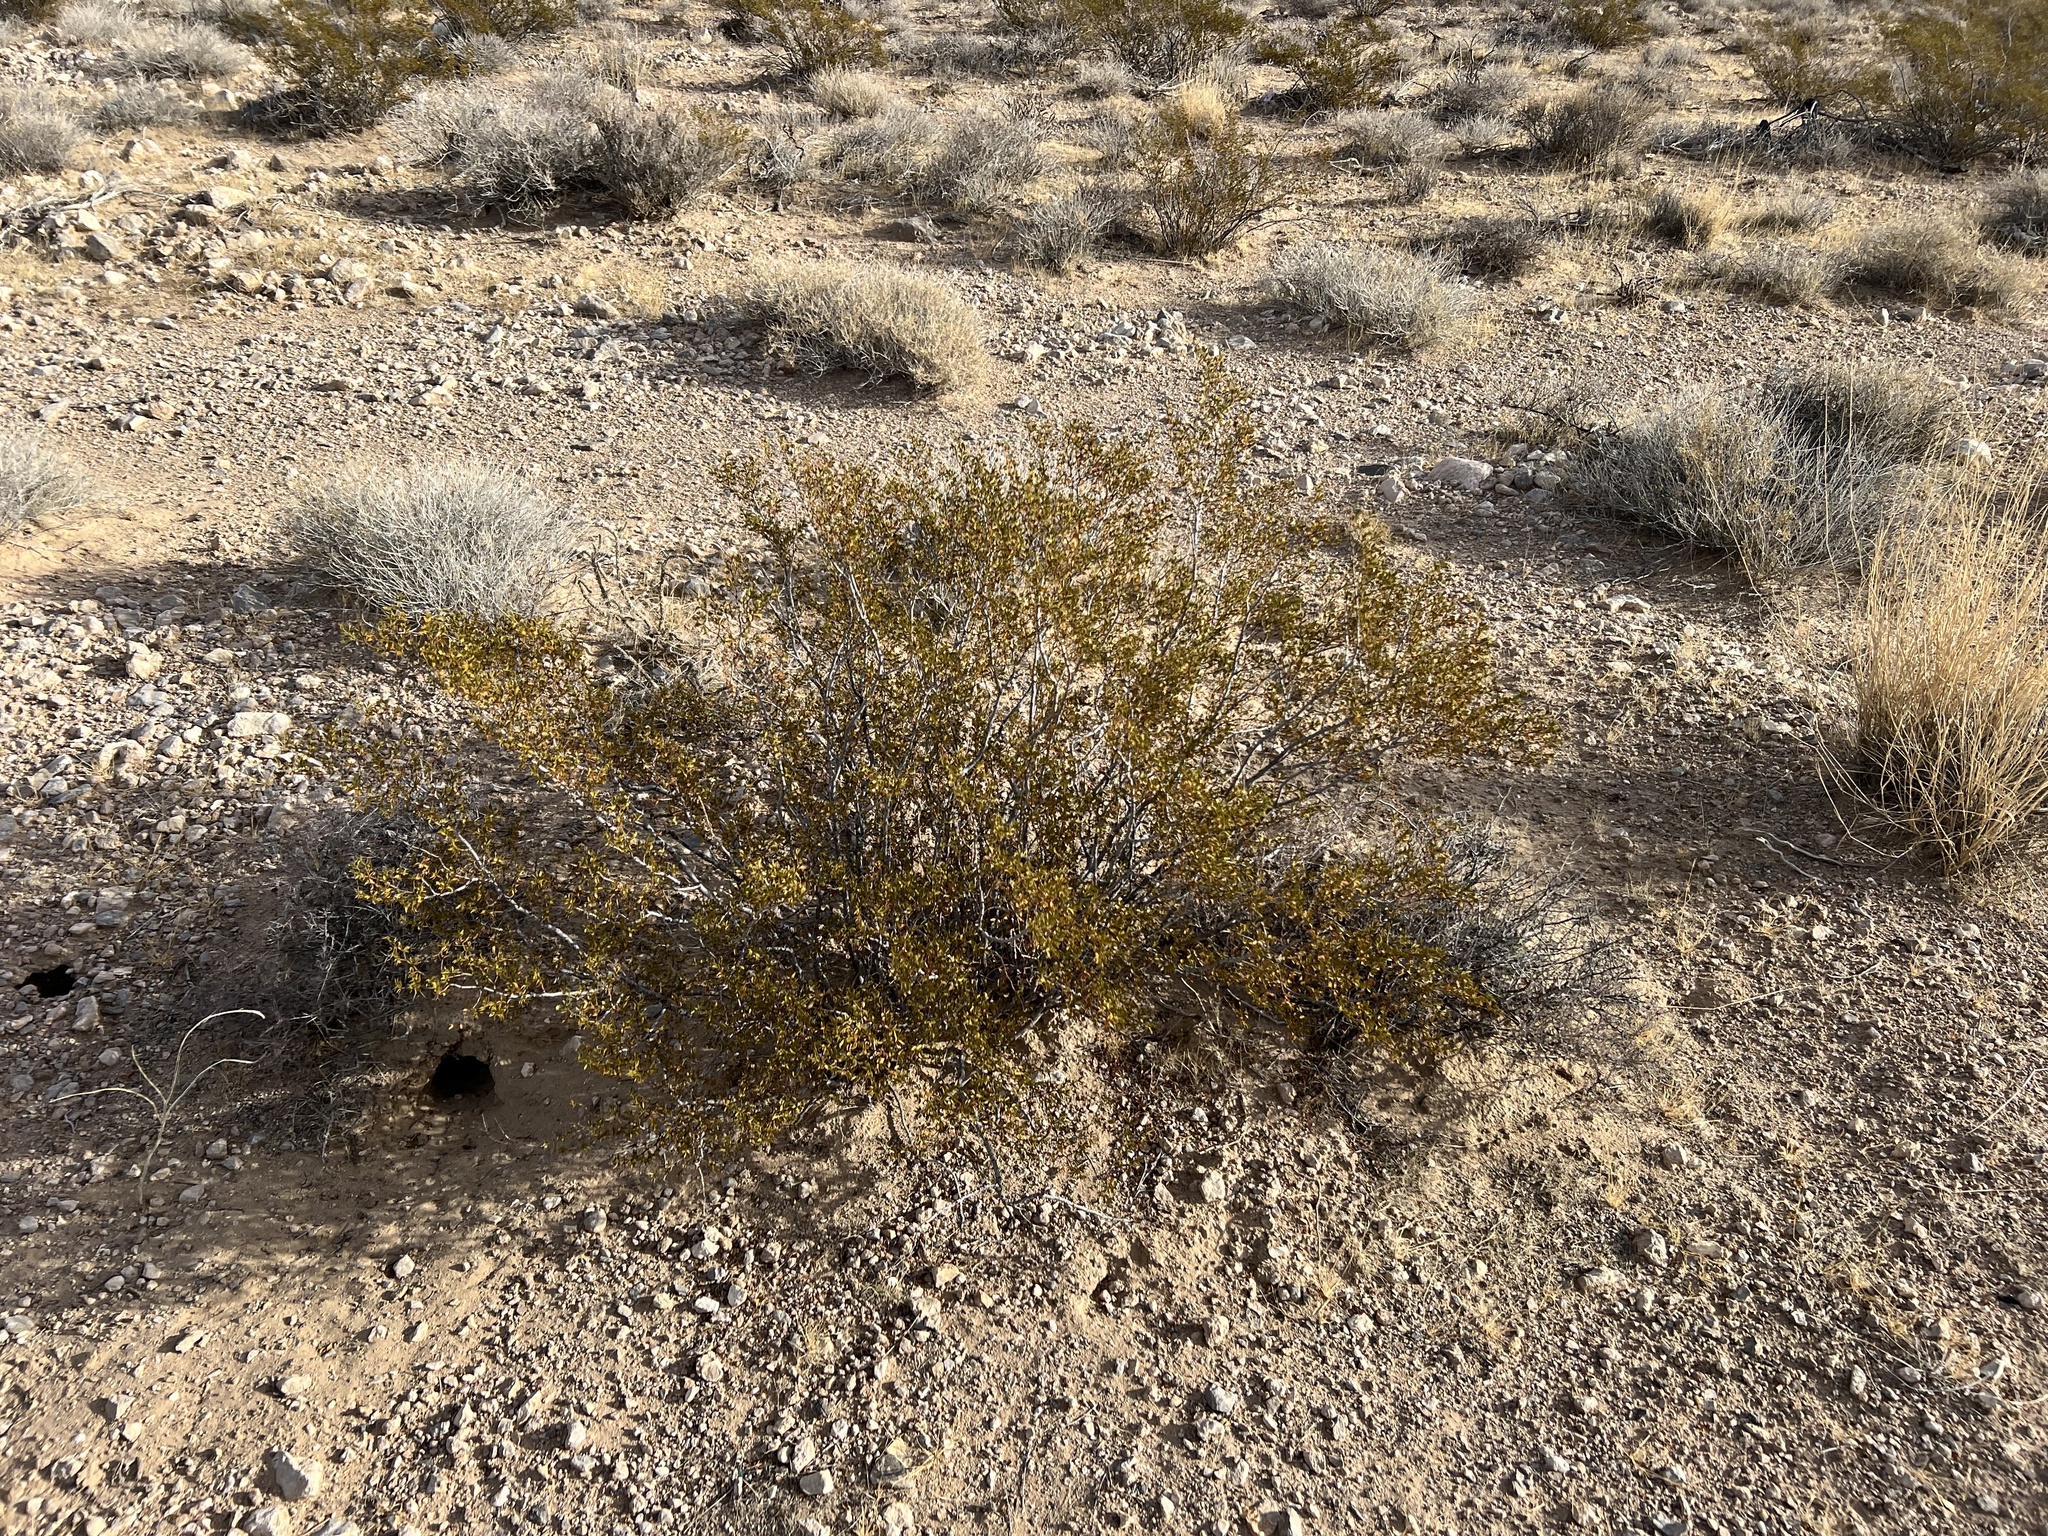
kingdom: Plantae
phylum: Tracheophyta
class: Magnoliopsida
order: Zygophyllales
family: Zygophyllaceae
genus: Larrea
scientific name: Larrea tridentata
